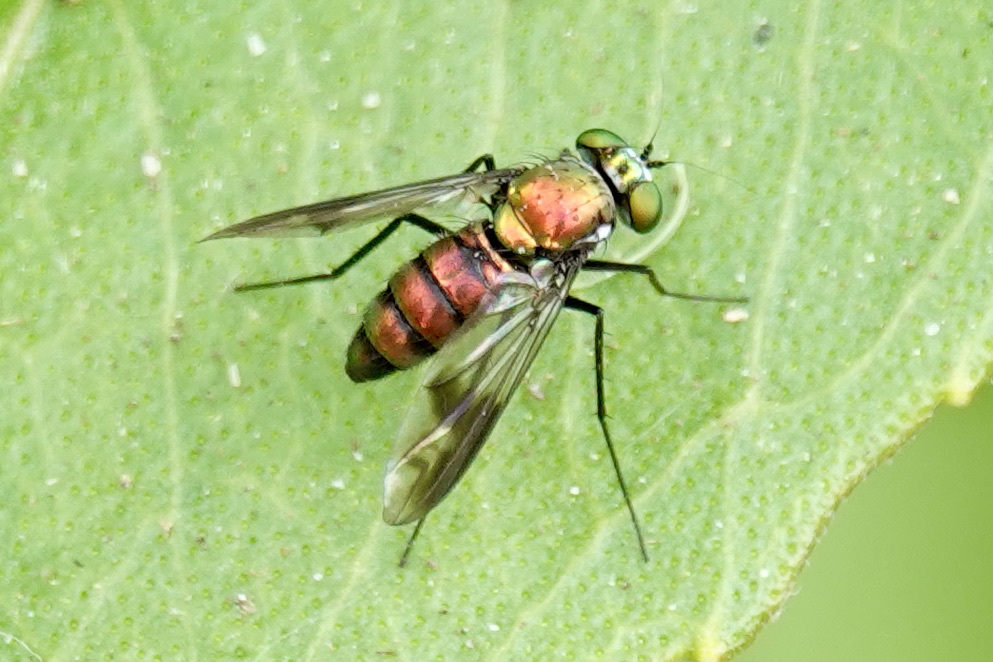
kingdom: Animalia
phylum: Arthropoda
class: Insecta
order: Diptera
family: Dolichopodidae
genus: Condylostylus
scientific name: Condylostylus patibulatus
